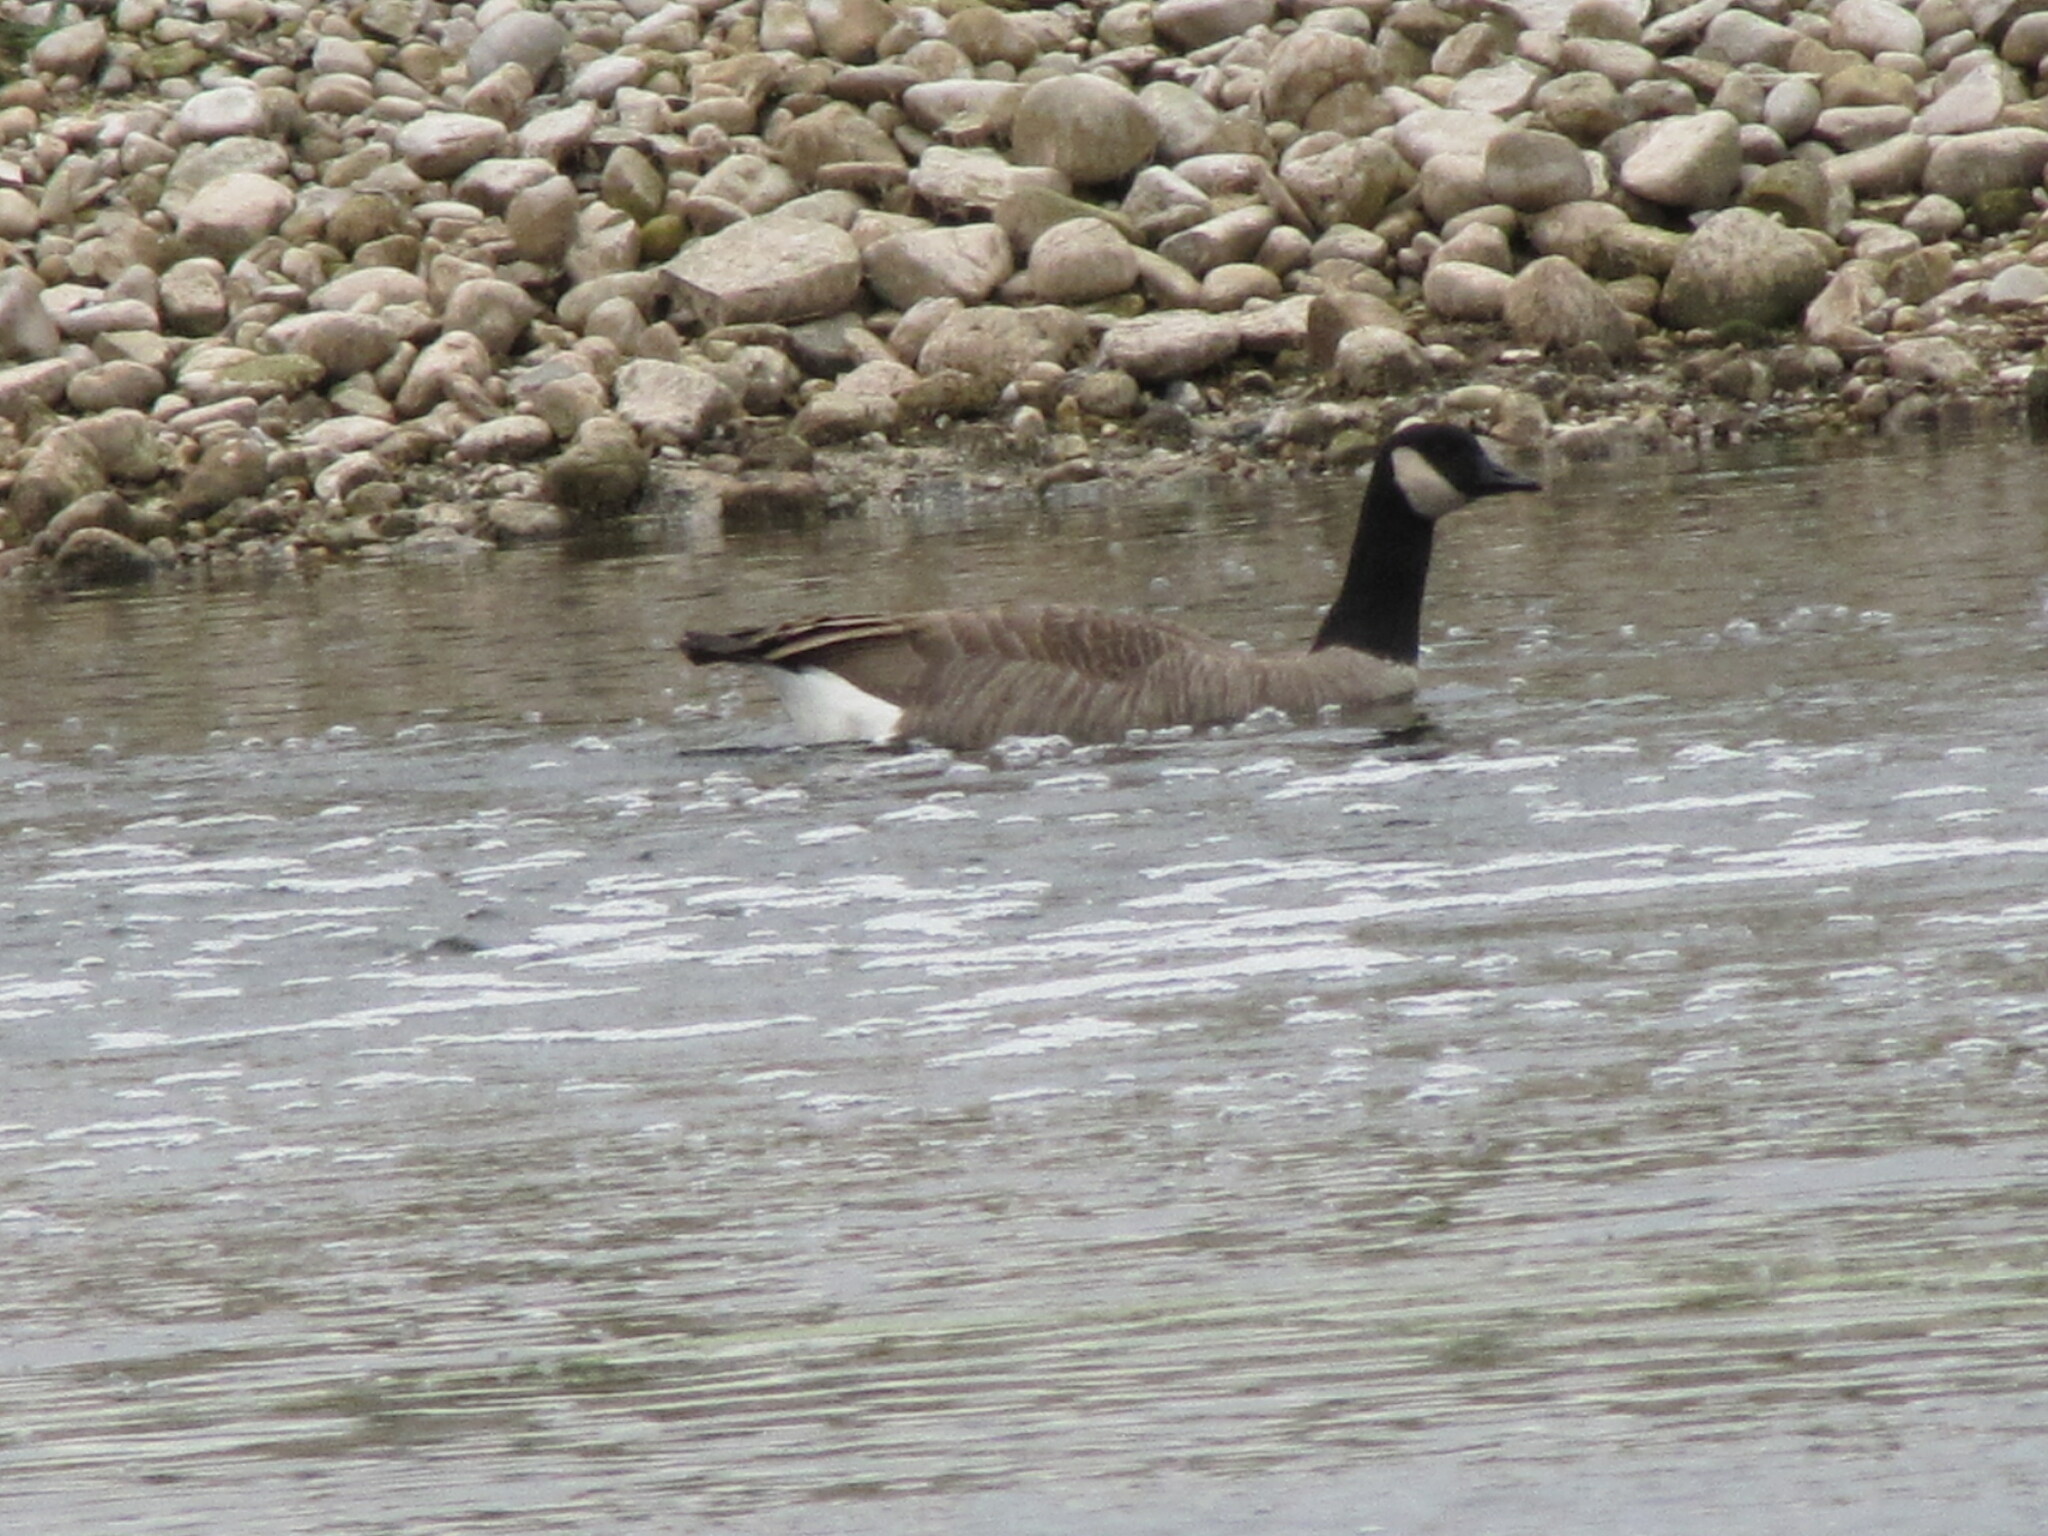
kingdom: Animalia
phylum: Chordata
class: Aves
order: Anseriformes
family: Anatidae
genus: Branta
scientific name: Branta canadensis
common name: Canada goose
